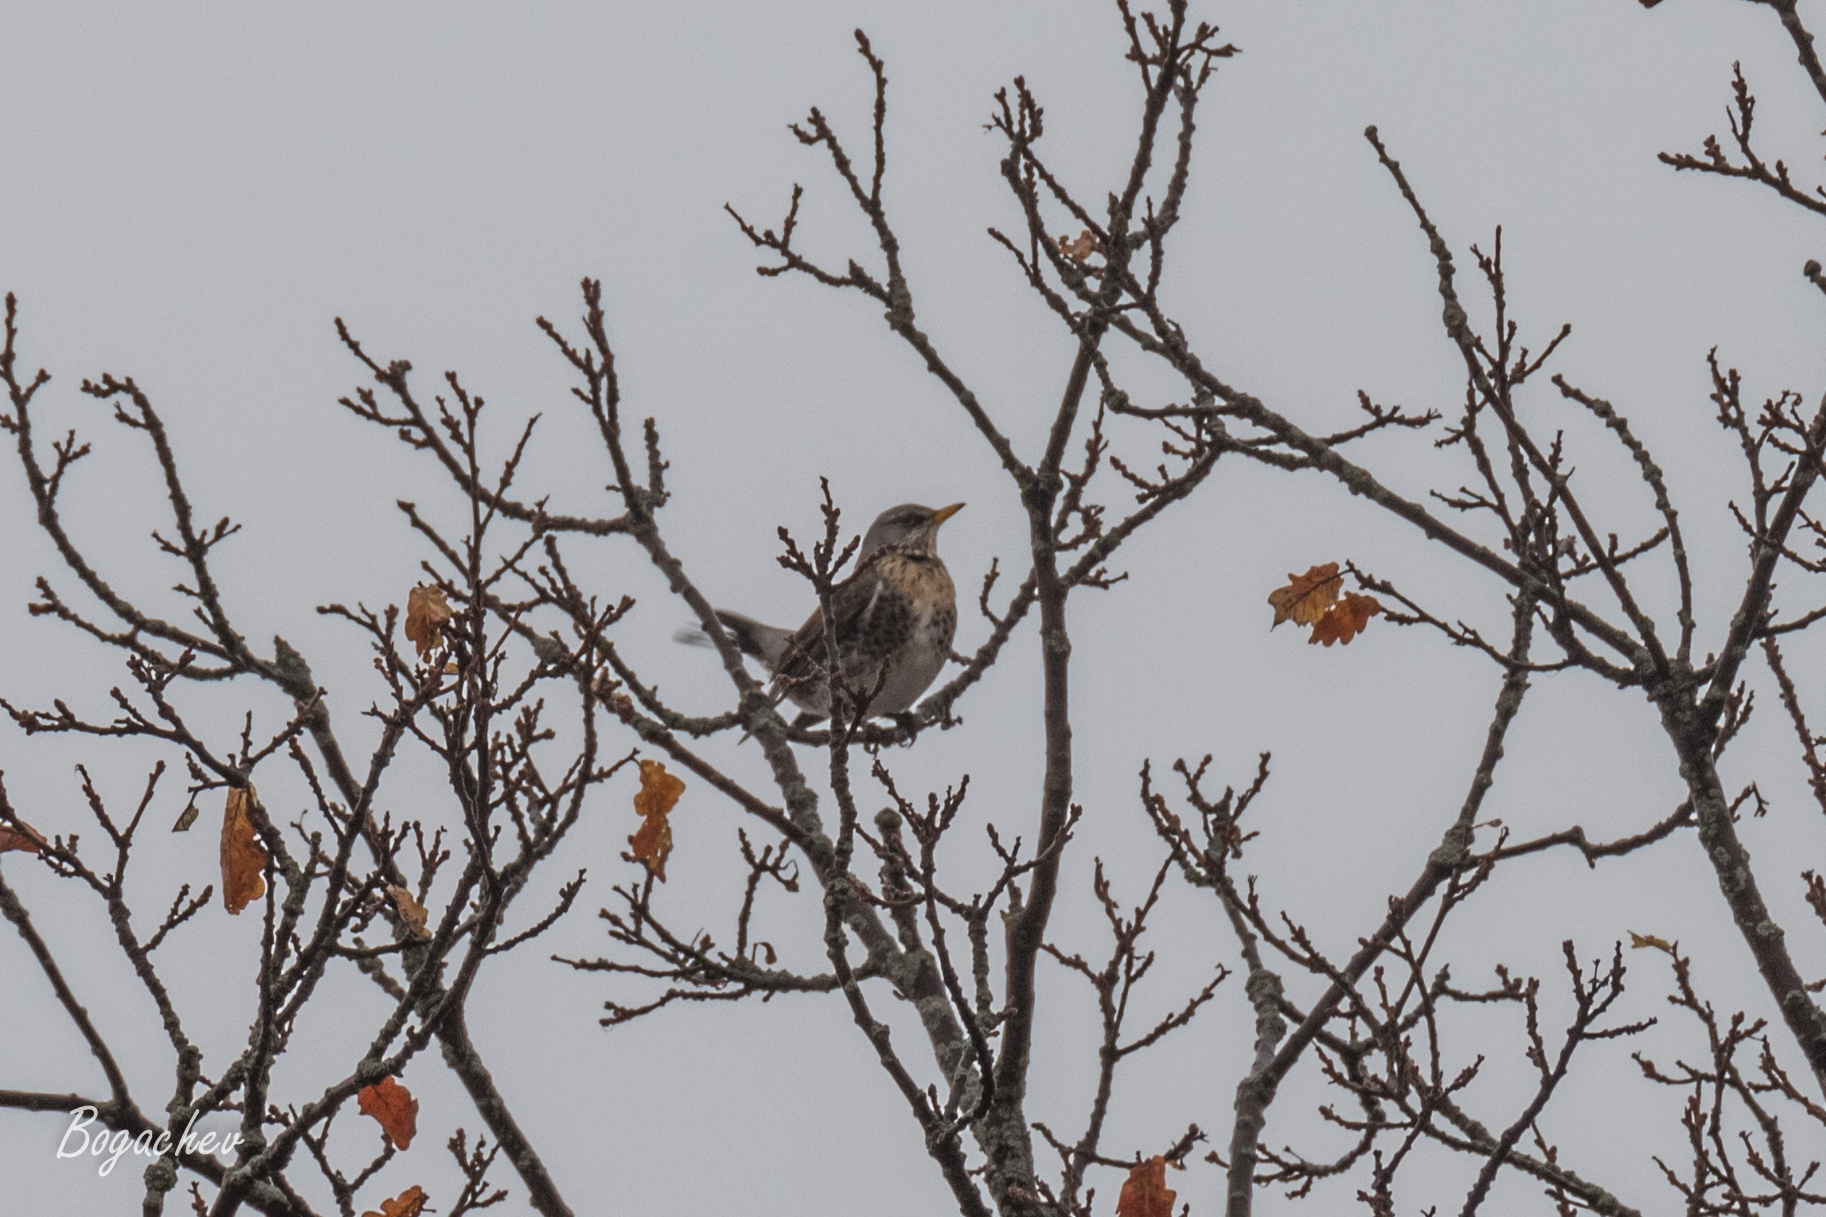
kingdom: Animalia
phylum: Chordata
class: Aves
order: Passeriformes
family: Turdidae
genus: Turdus
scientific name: Turdus pilaris
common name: Fieldfare
